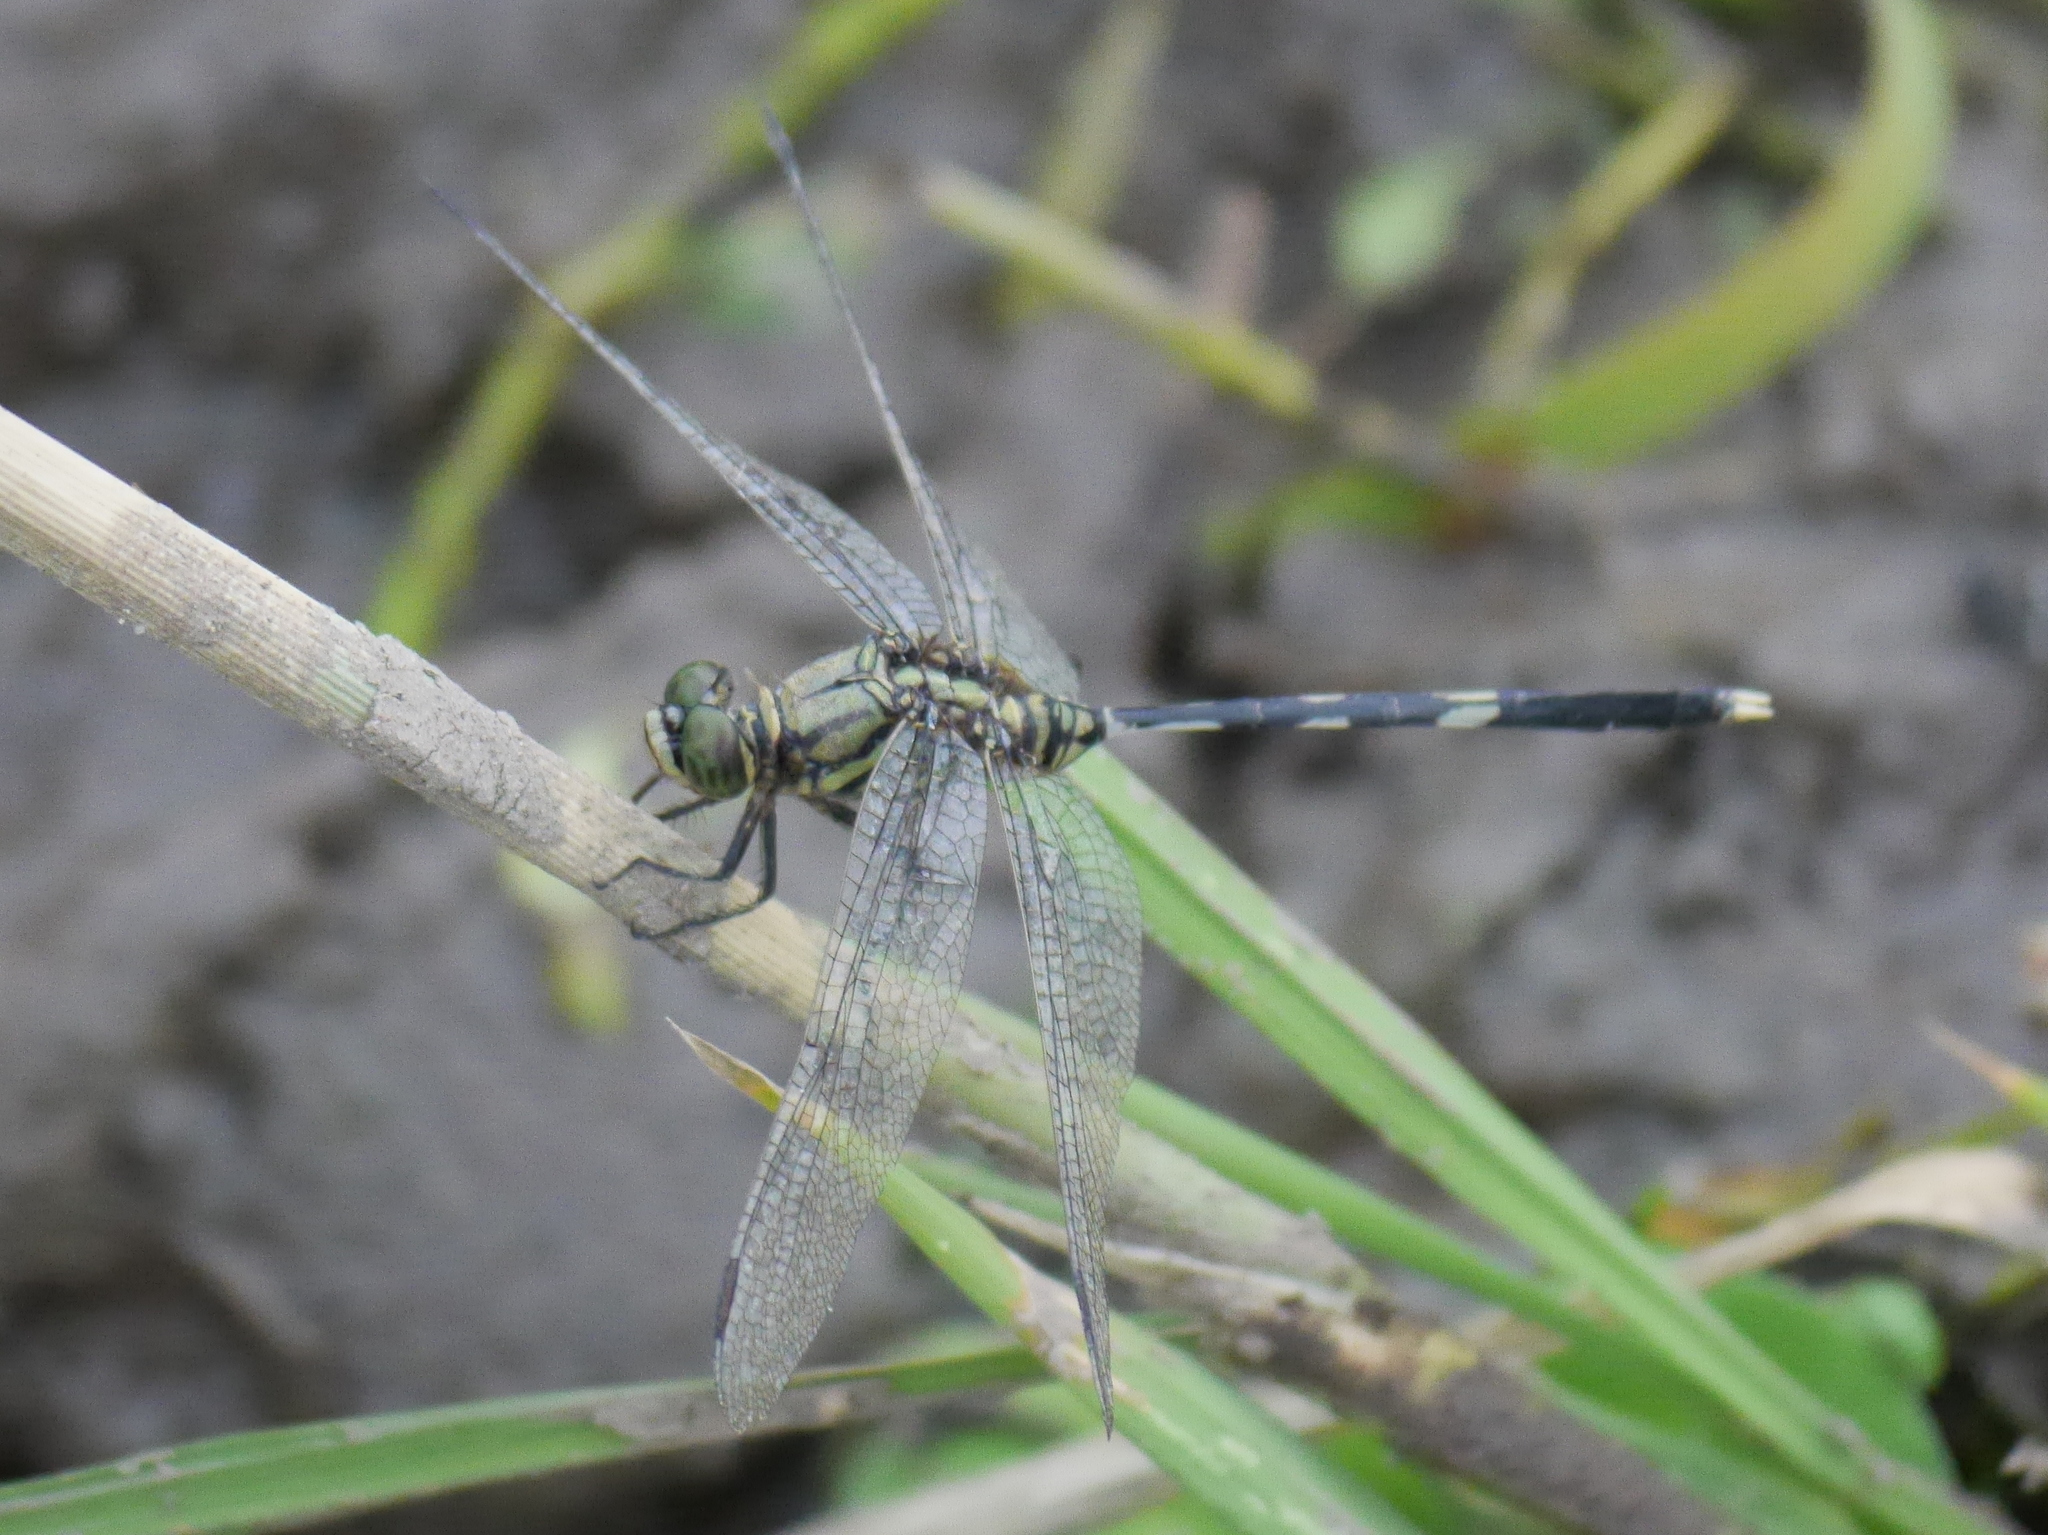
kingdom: Animalia
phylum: Arthropoda
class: Insecta
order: Odonata
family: Libellulidae
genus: Orthetrum
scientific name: Orthetrum sabina
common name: Slender skimmer
